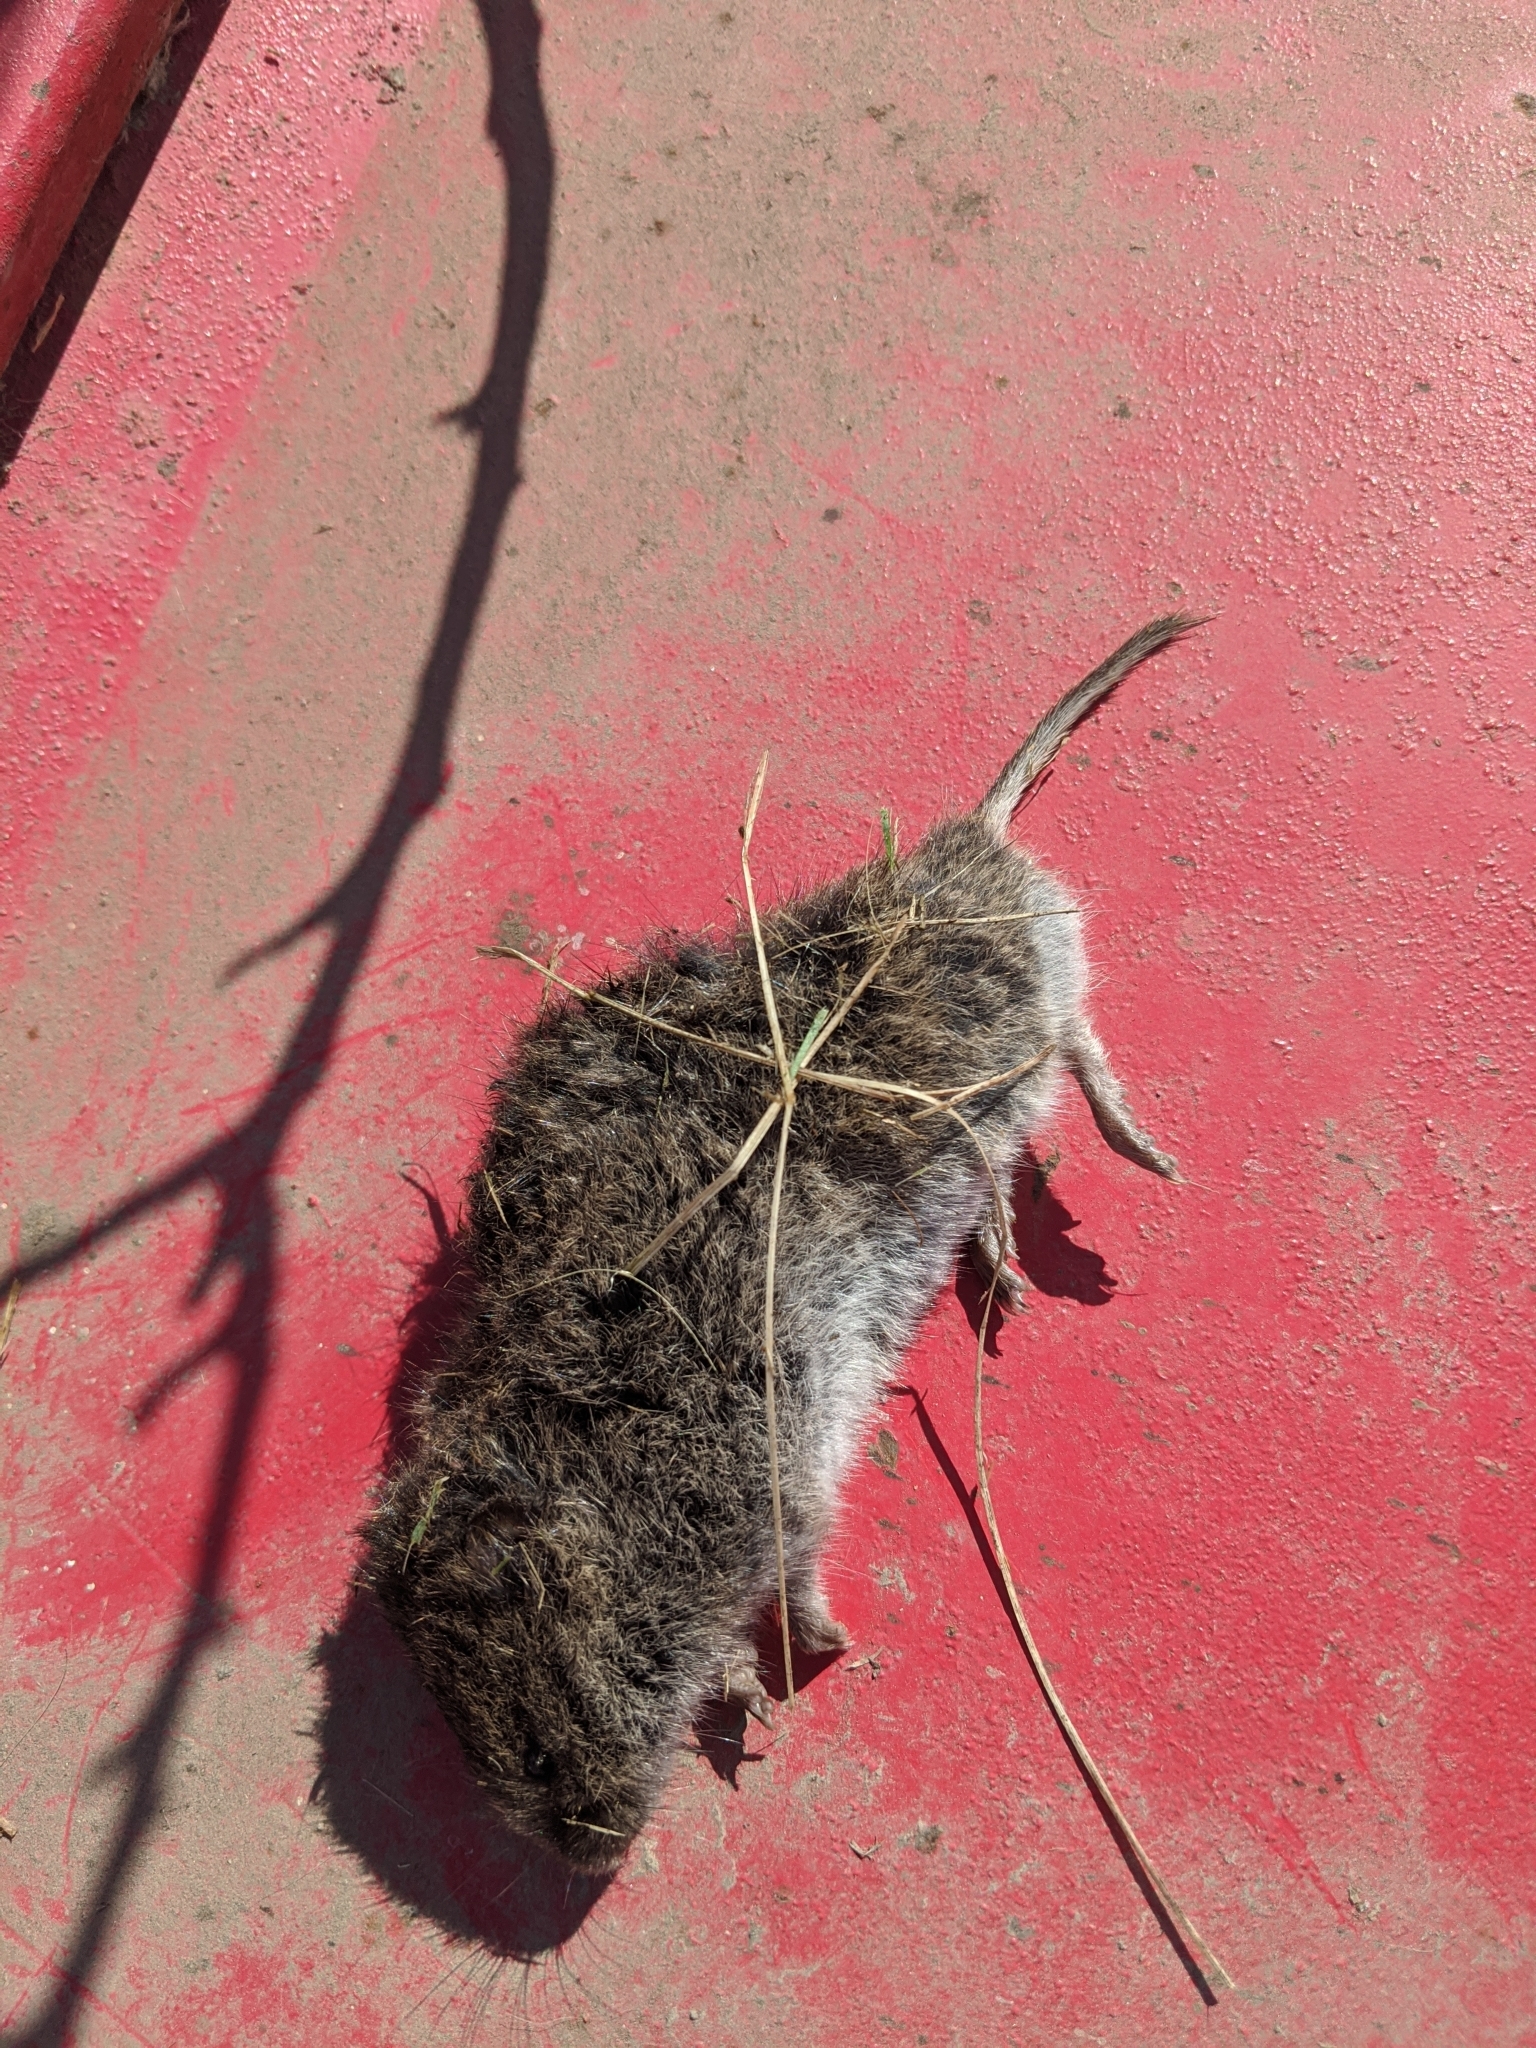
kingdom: Animalia
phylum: Chordata
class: Mammalia
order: Rodentia
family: Cricetidae
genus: Microtus
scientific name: Microtus pennsylvanicus
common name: Meadow vole
